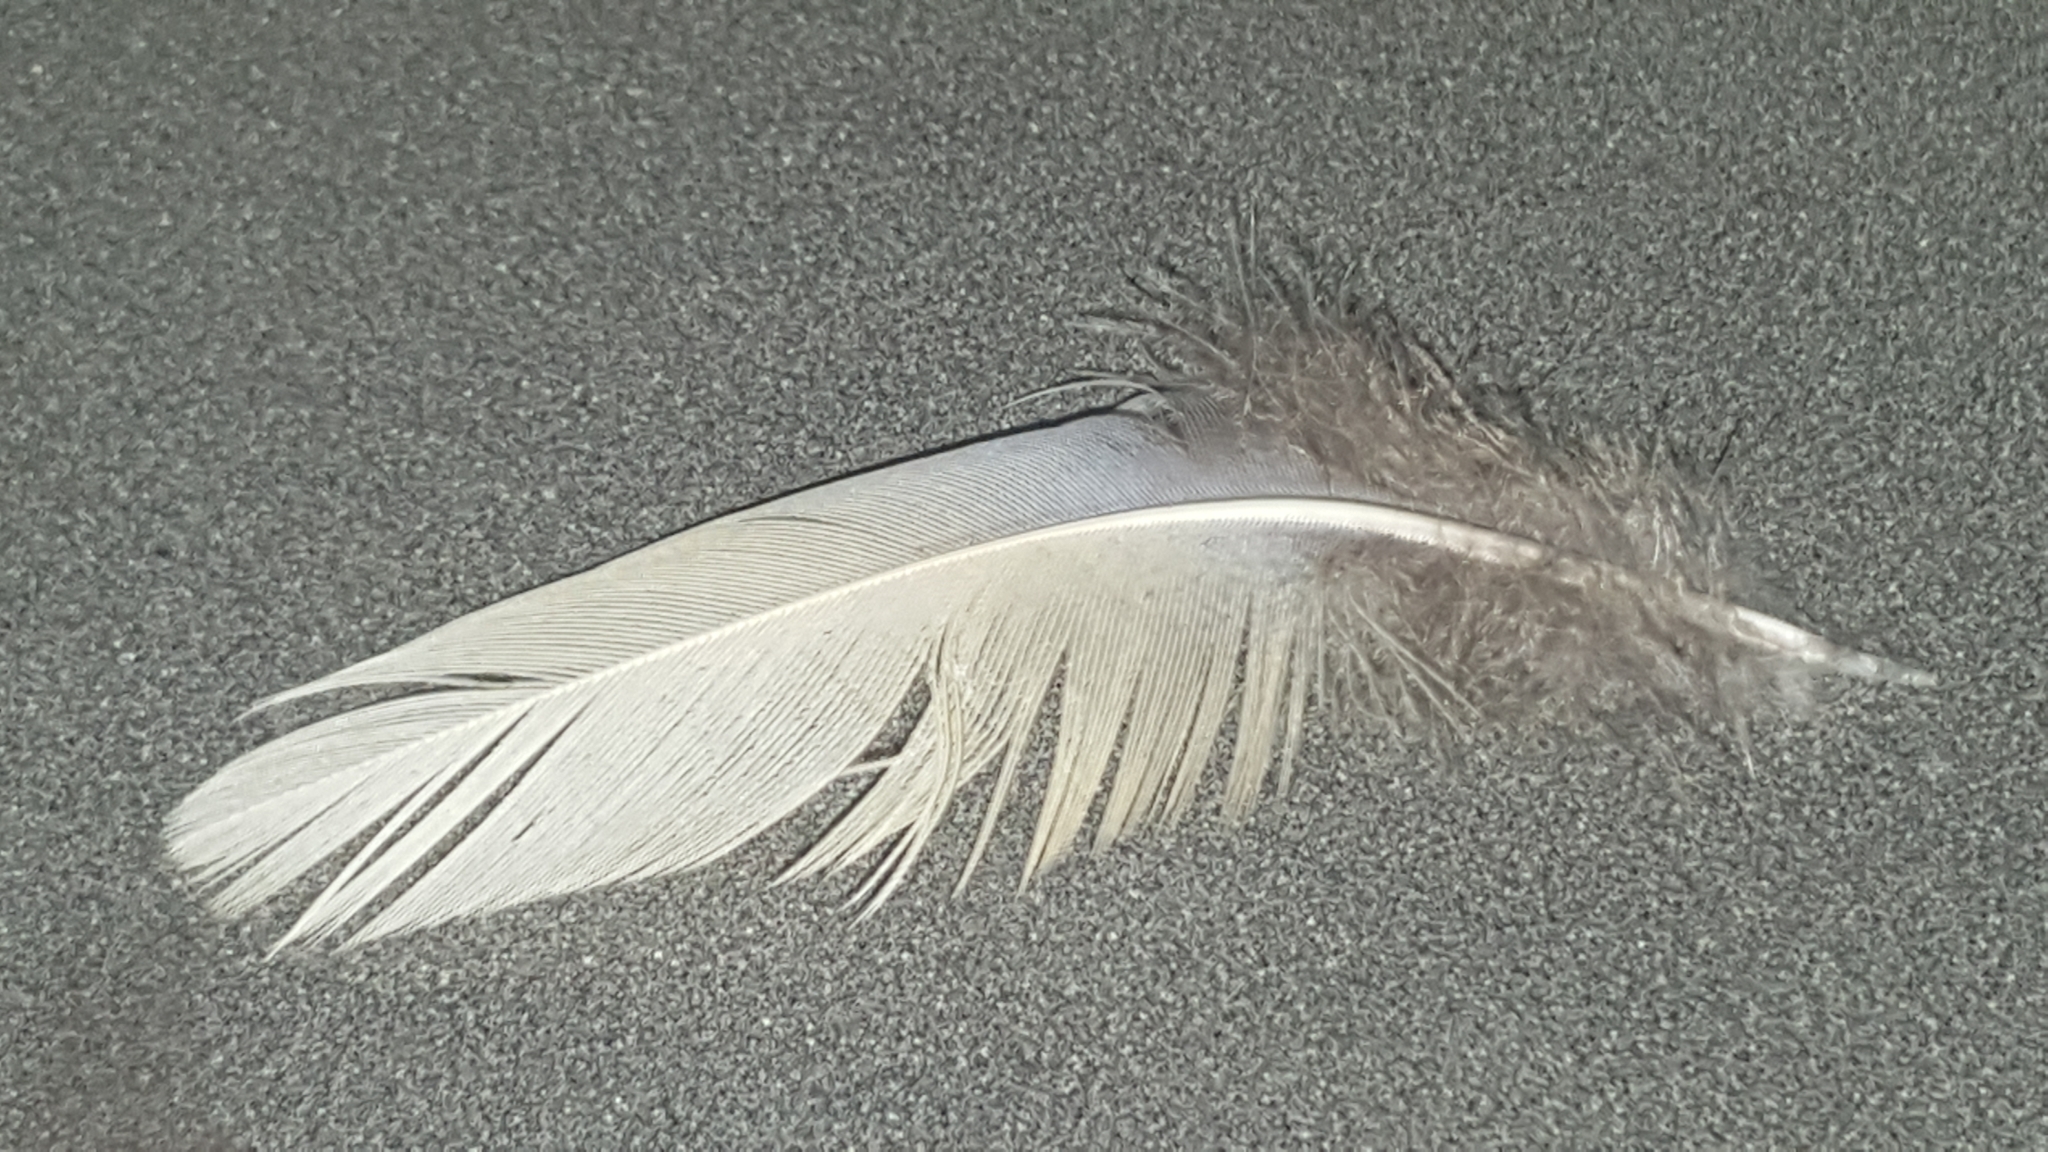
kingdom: Animalia
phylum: Chordata
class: Aves
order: Columbiformes
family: Columbidae
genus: Zenaida
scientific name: Zenaida macroura
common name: Mourning dove
